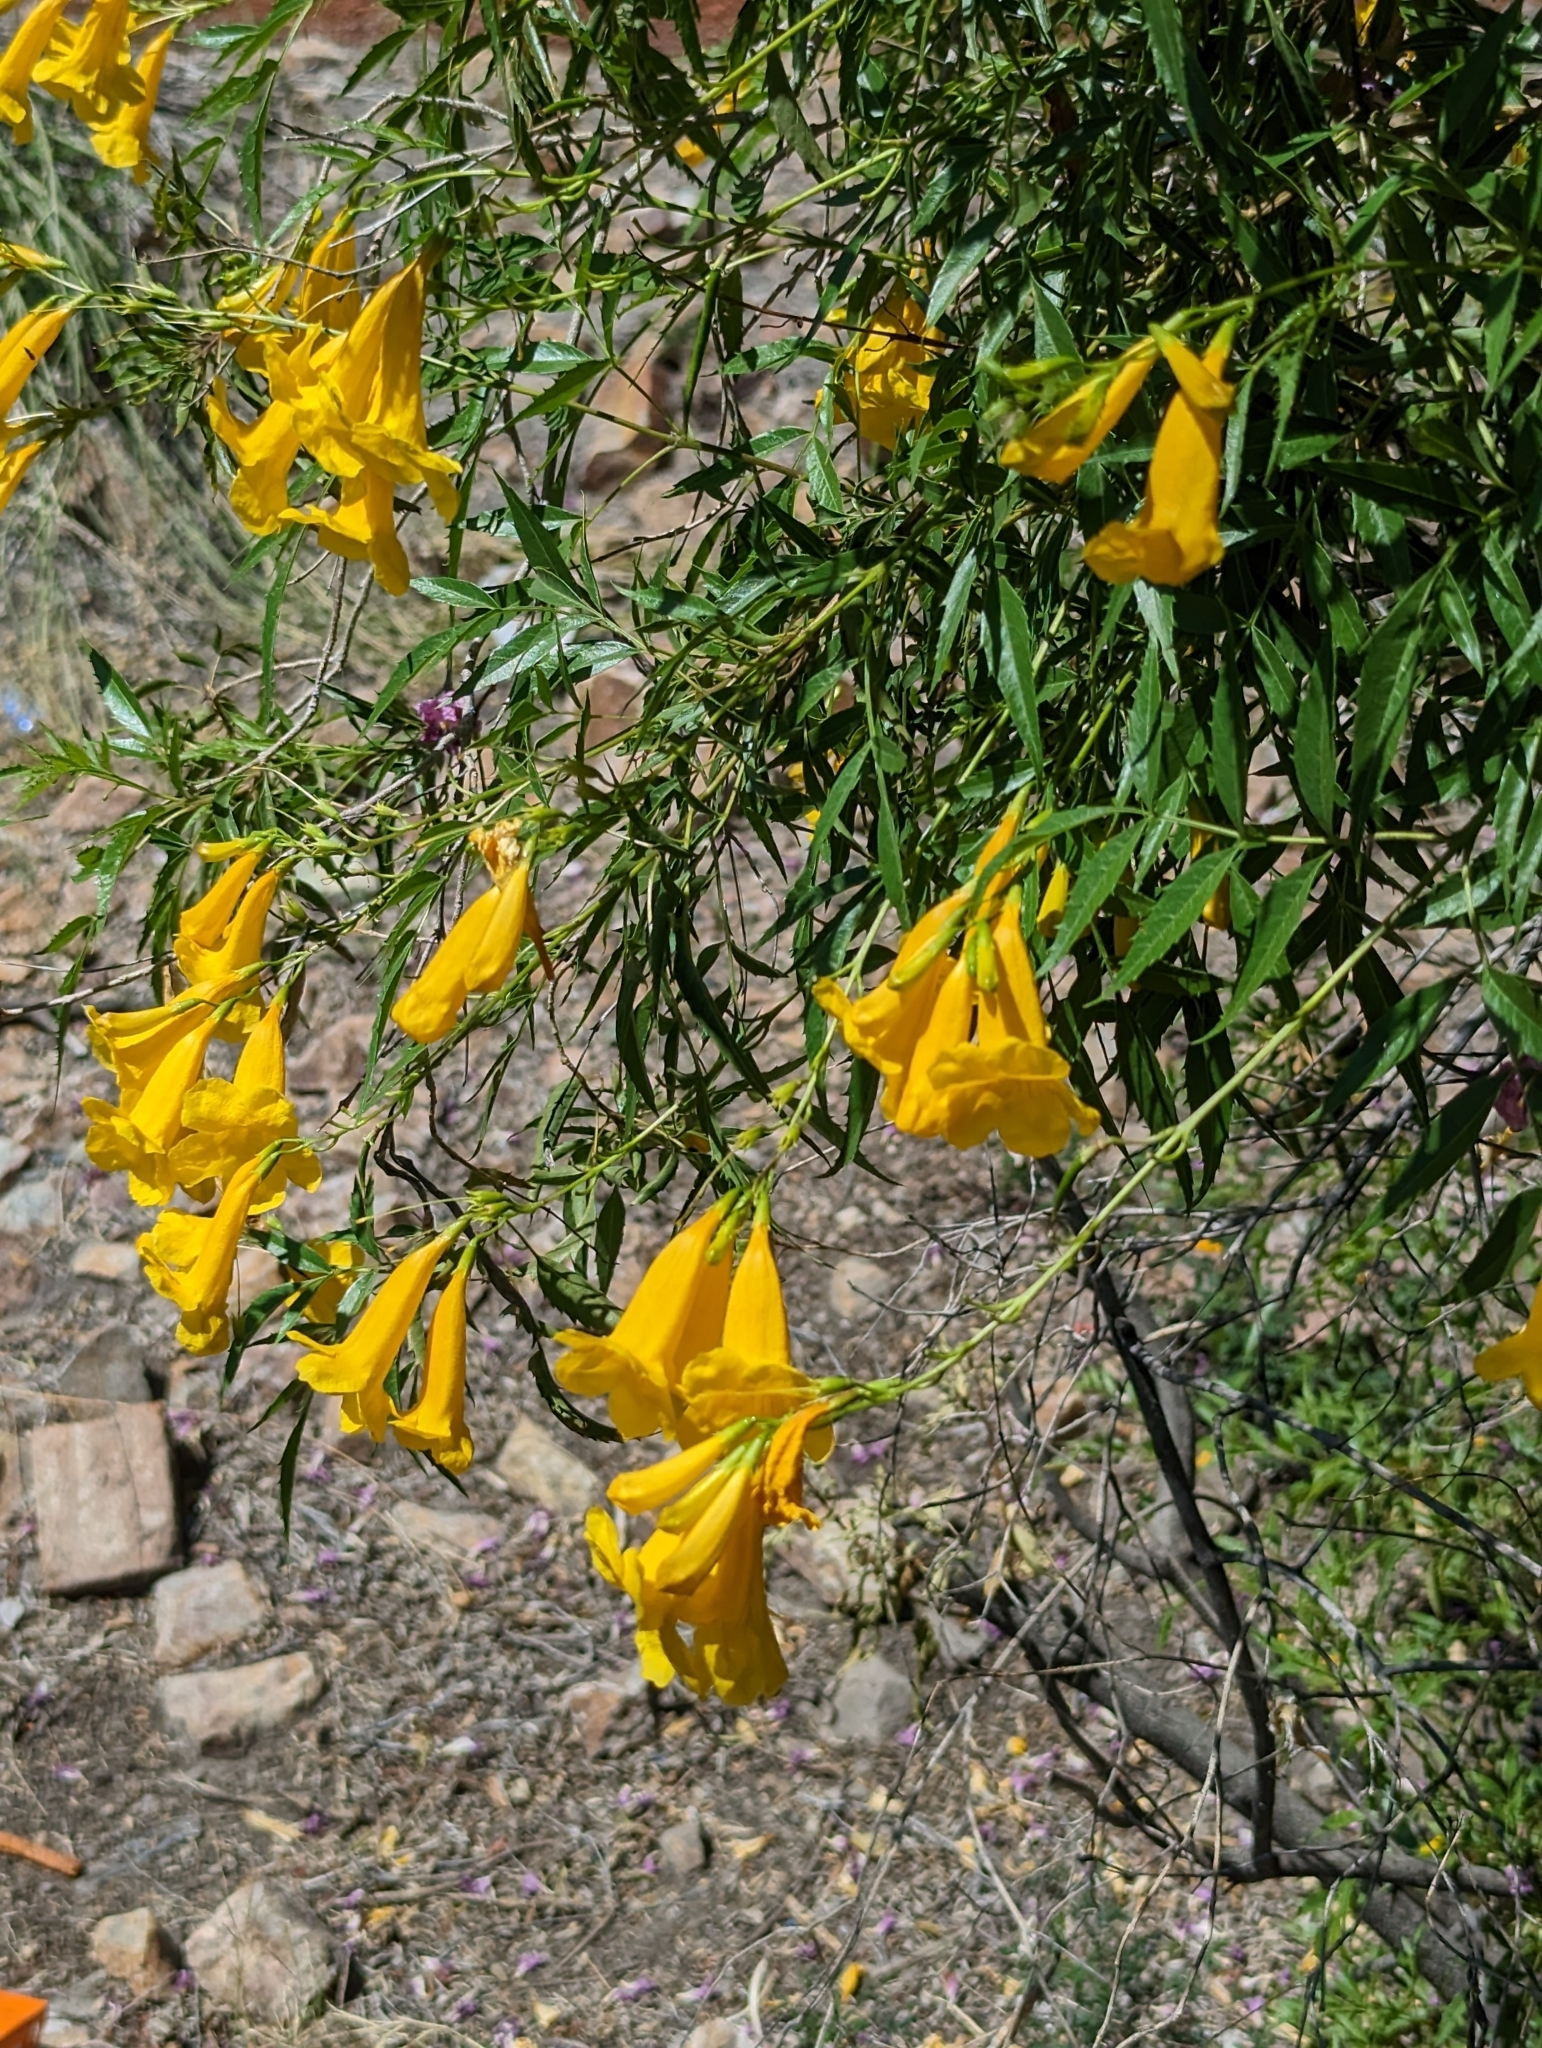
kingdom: Plantae
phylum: Tracheophyta
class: Magnoliopsida
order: Lamiales
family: Bignoniaceae
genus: Tecoma
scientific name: Tecoma stans
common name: Yellow trumpetbush
